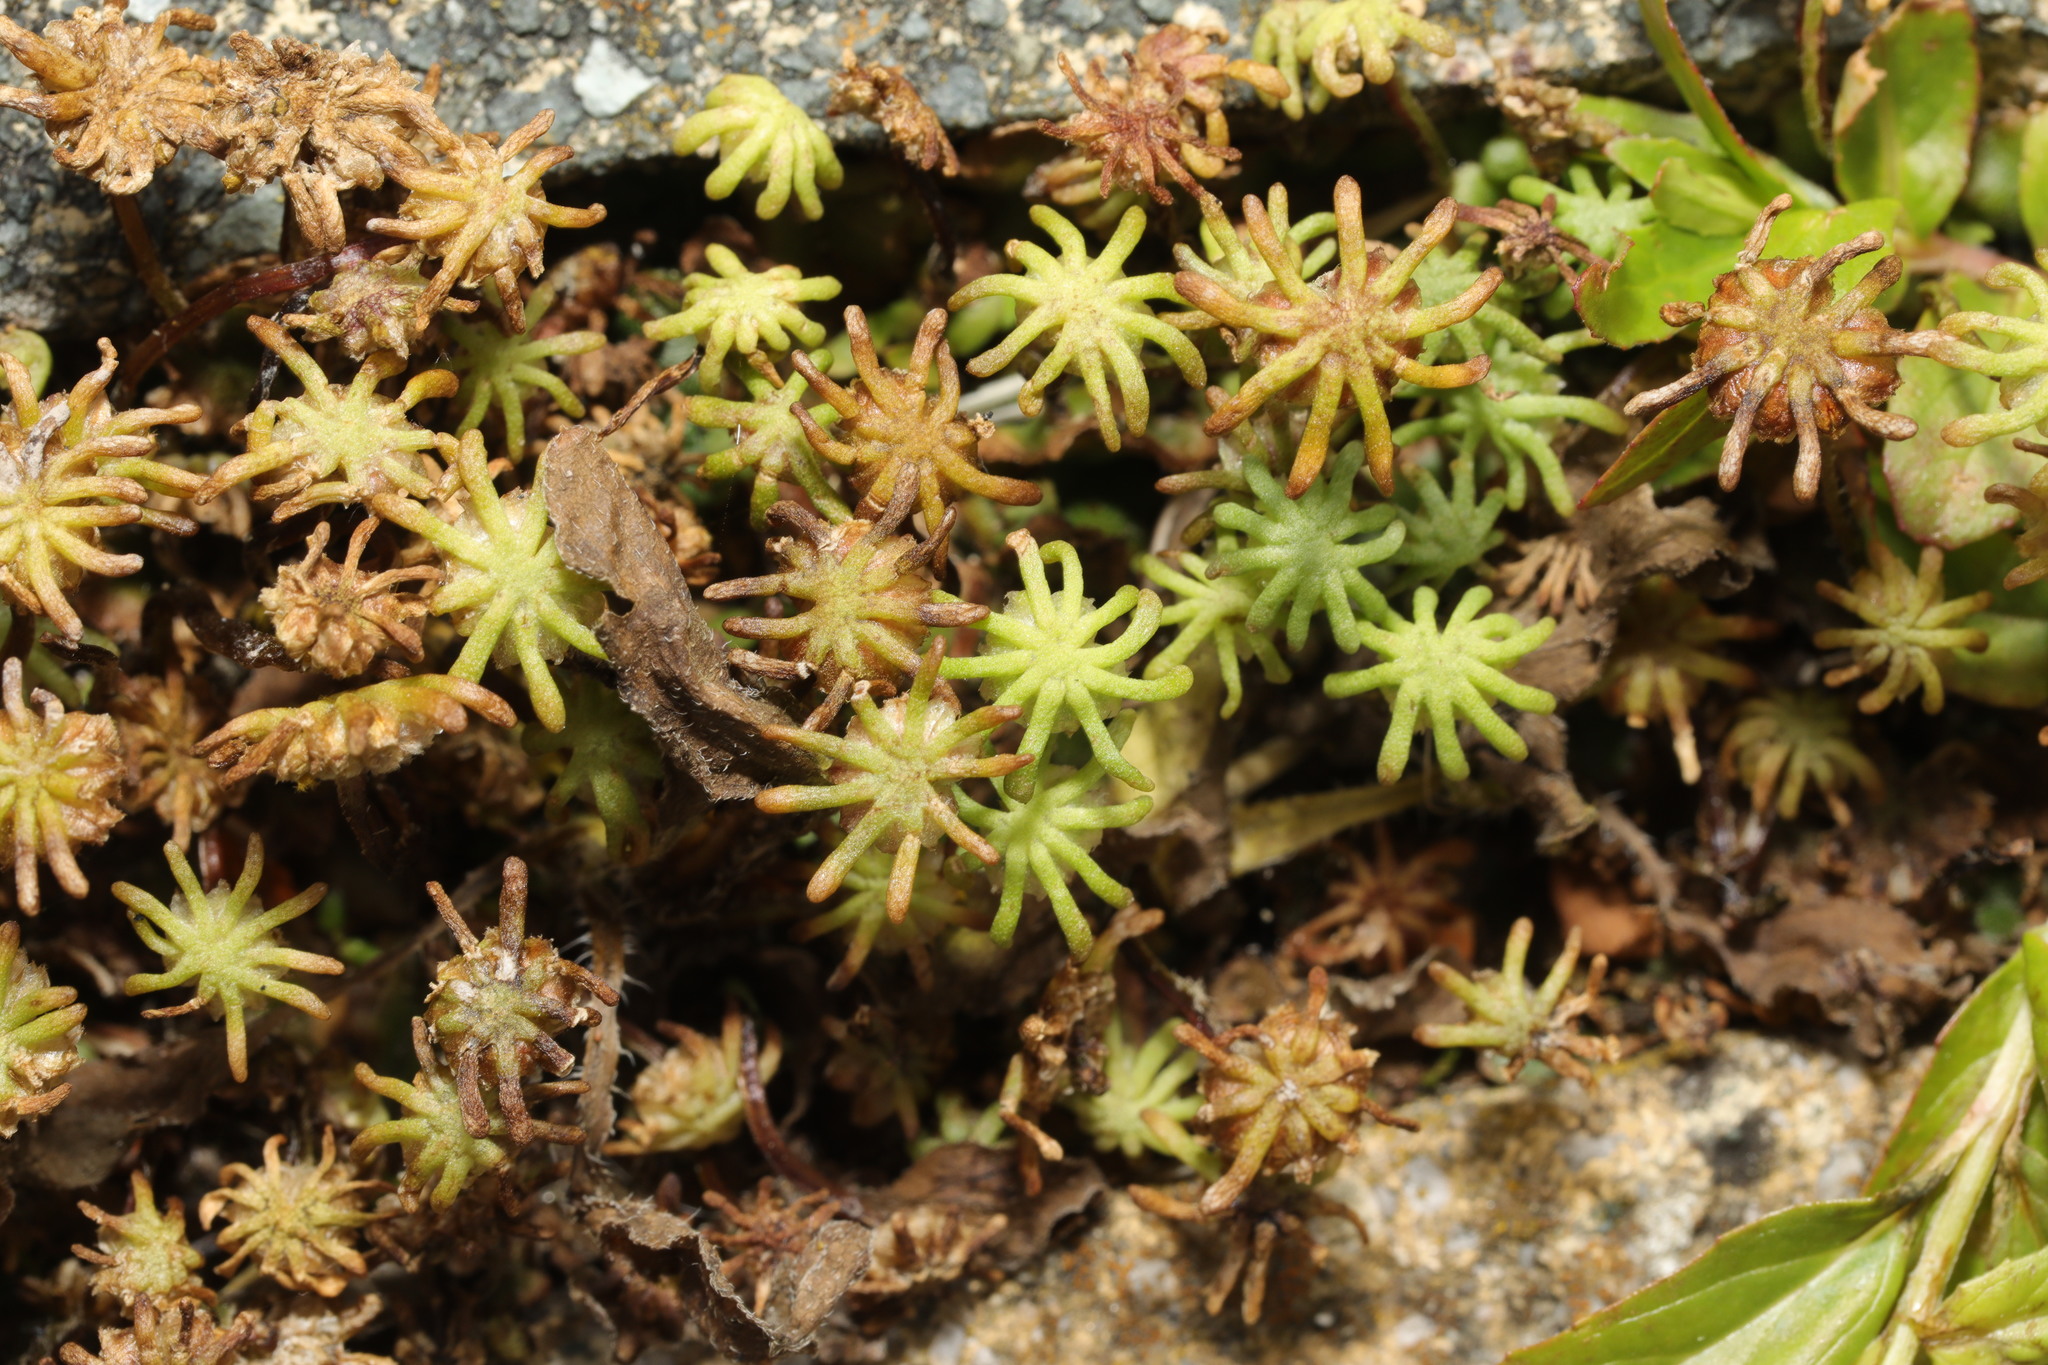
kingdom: Plantae
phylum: Marchantiophyta
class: Marchantiopsida
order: Marchantiales
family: Marchantiaceae
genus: Marchantia
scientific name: Marchantia polymorpha
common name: Common liverwort
